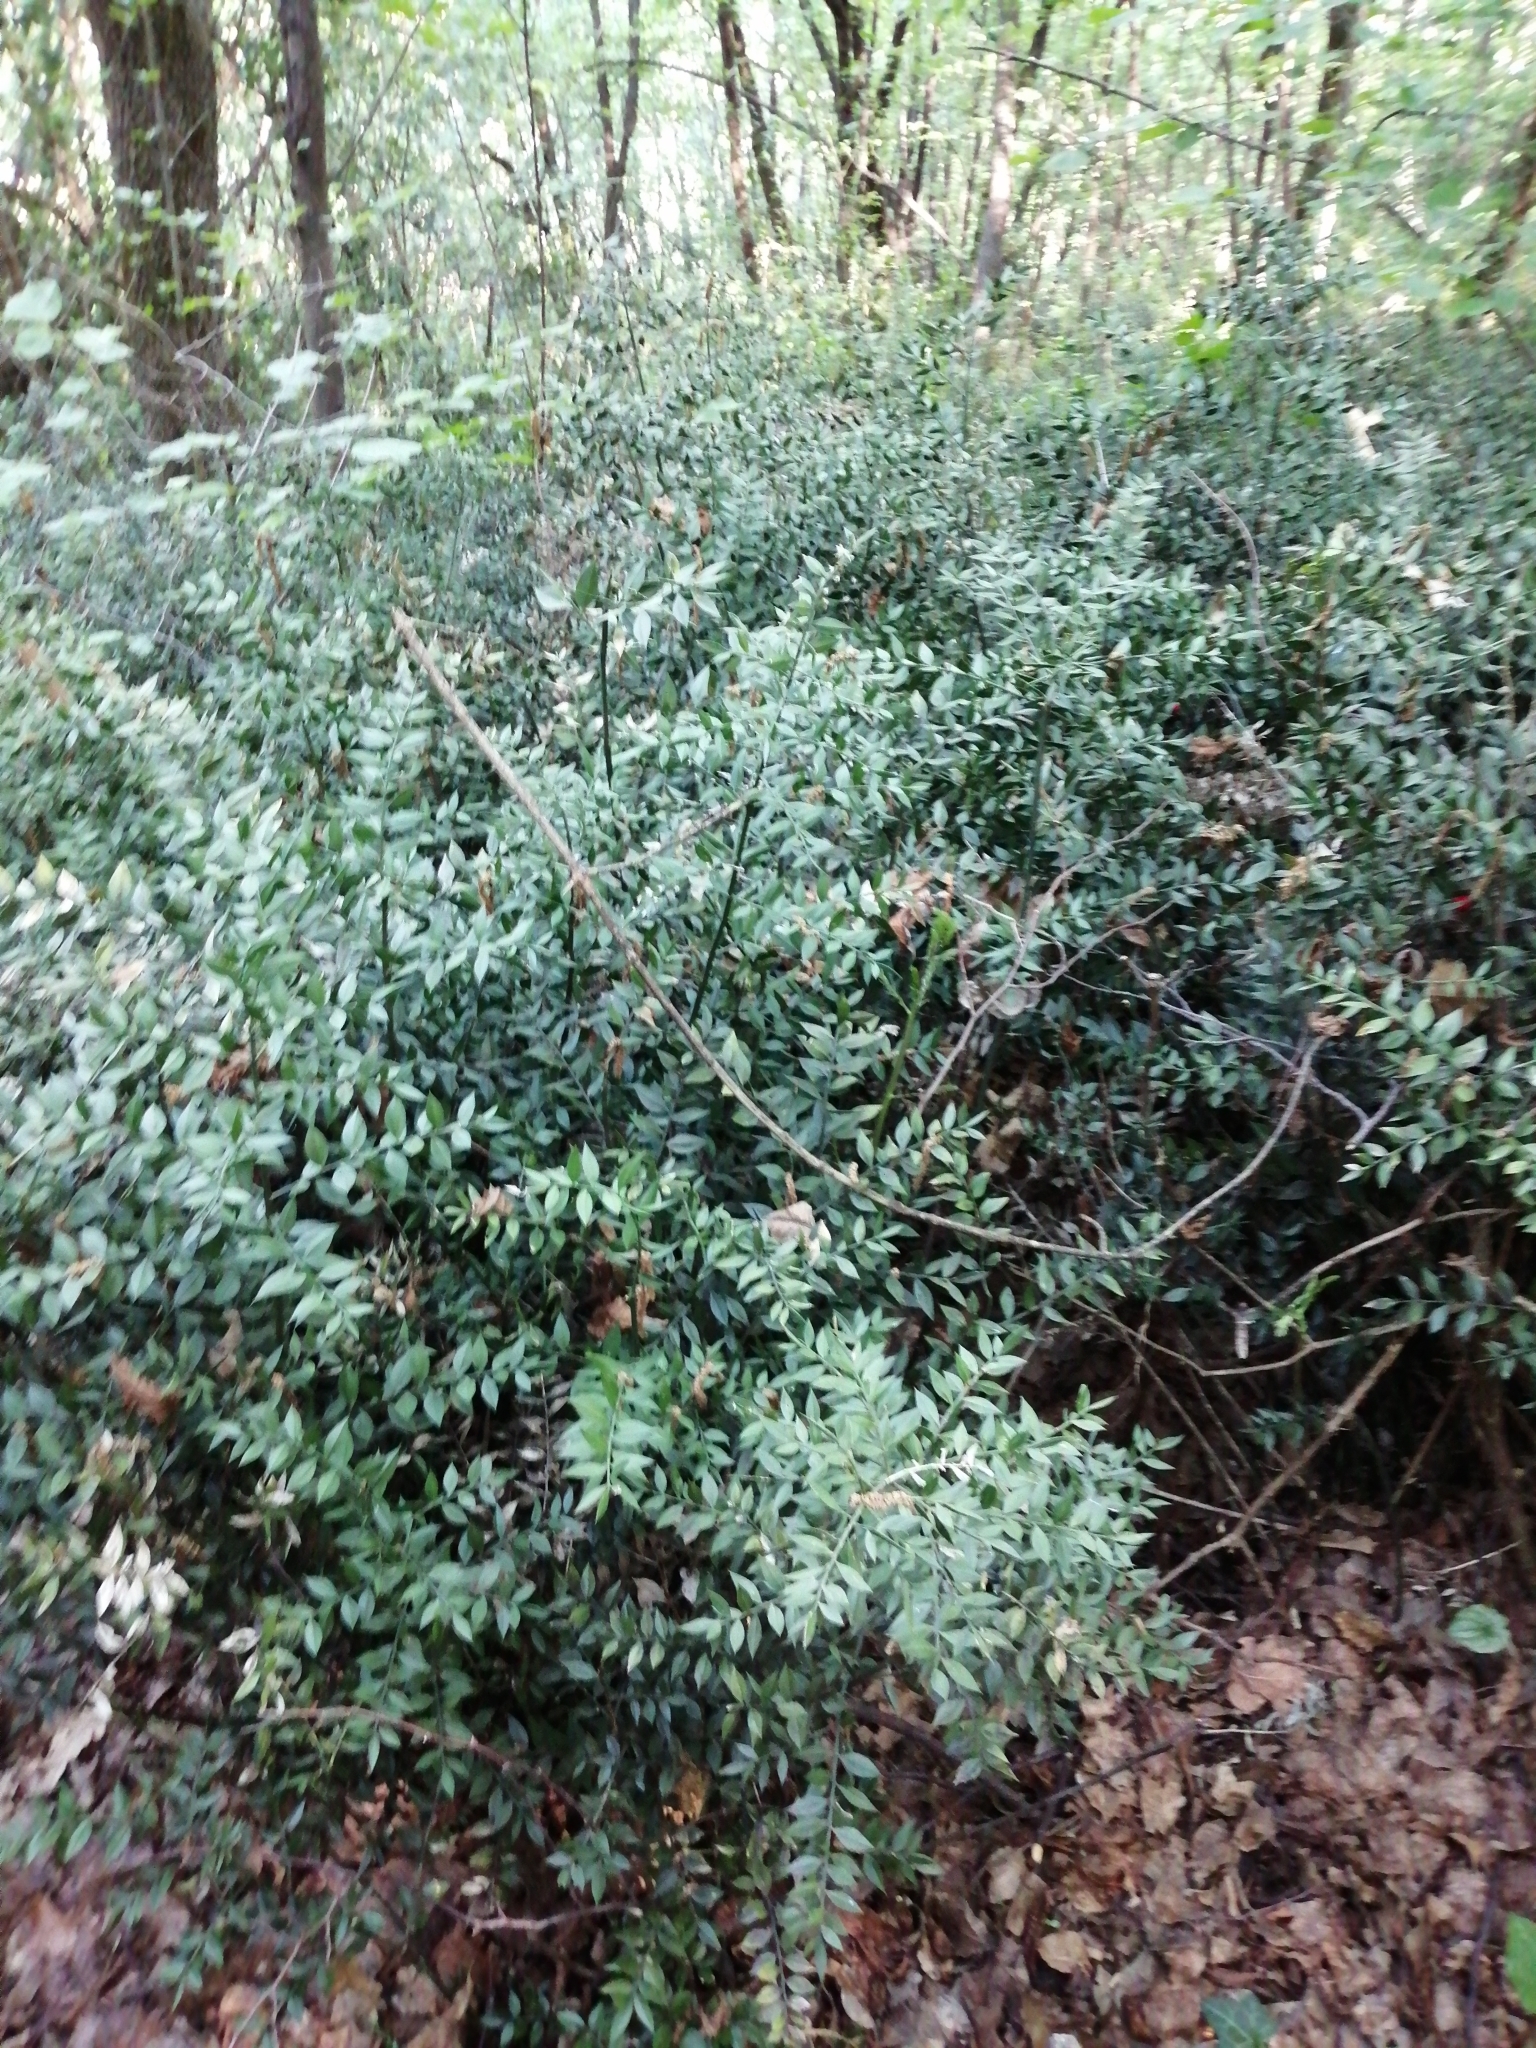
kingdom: Plantae
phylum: Tracheophyta
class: Liliopsida
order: Asparagales
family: Asparagaceae
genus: Ruscus
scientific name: Ruscus aculeatus
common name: Butcher's-broom
